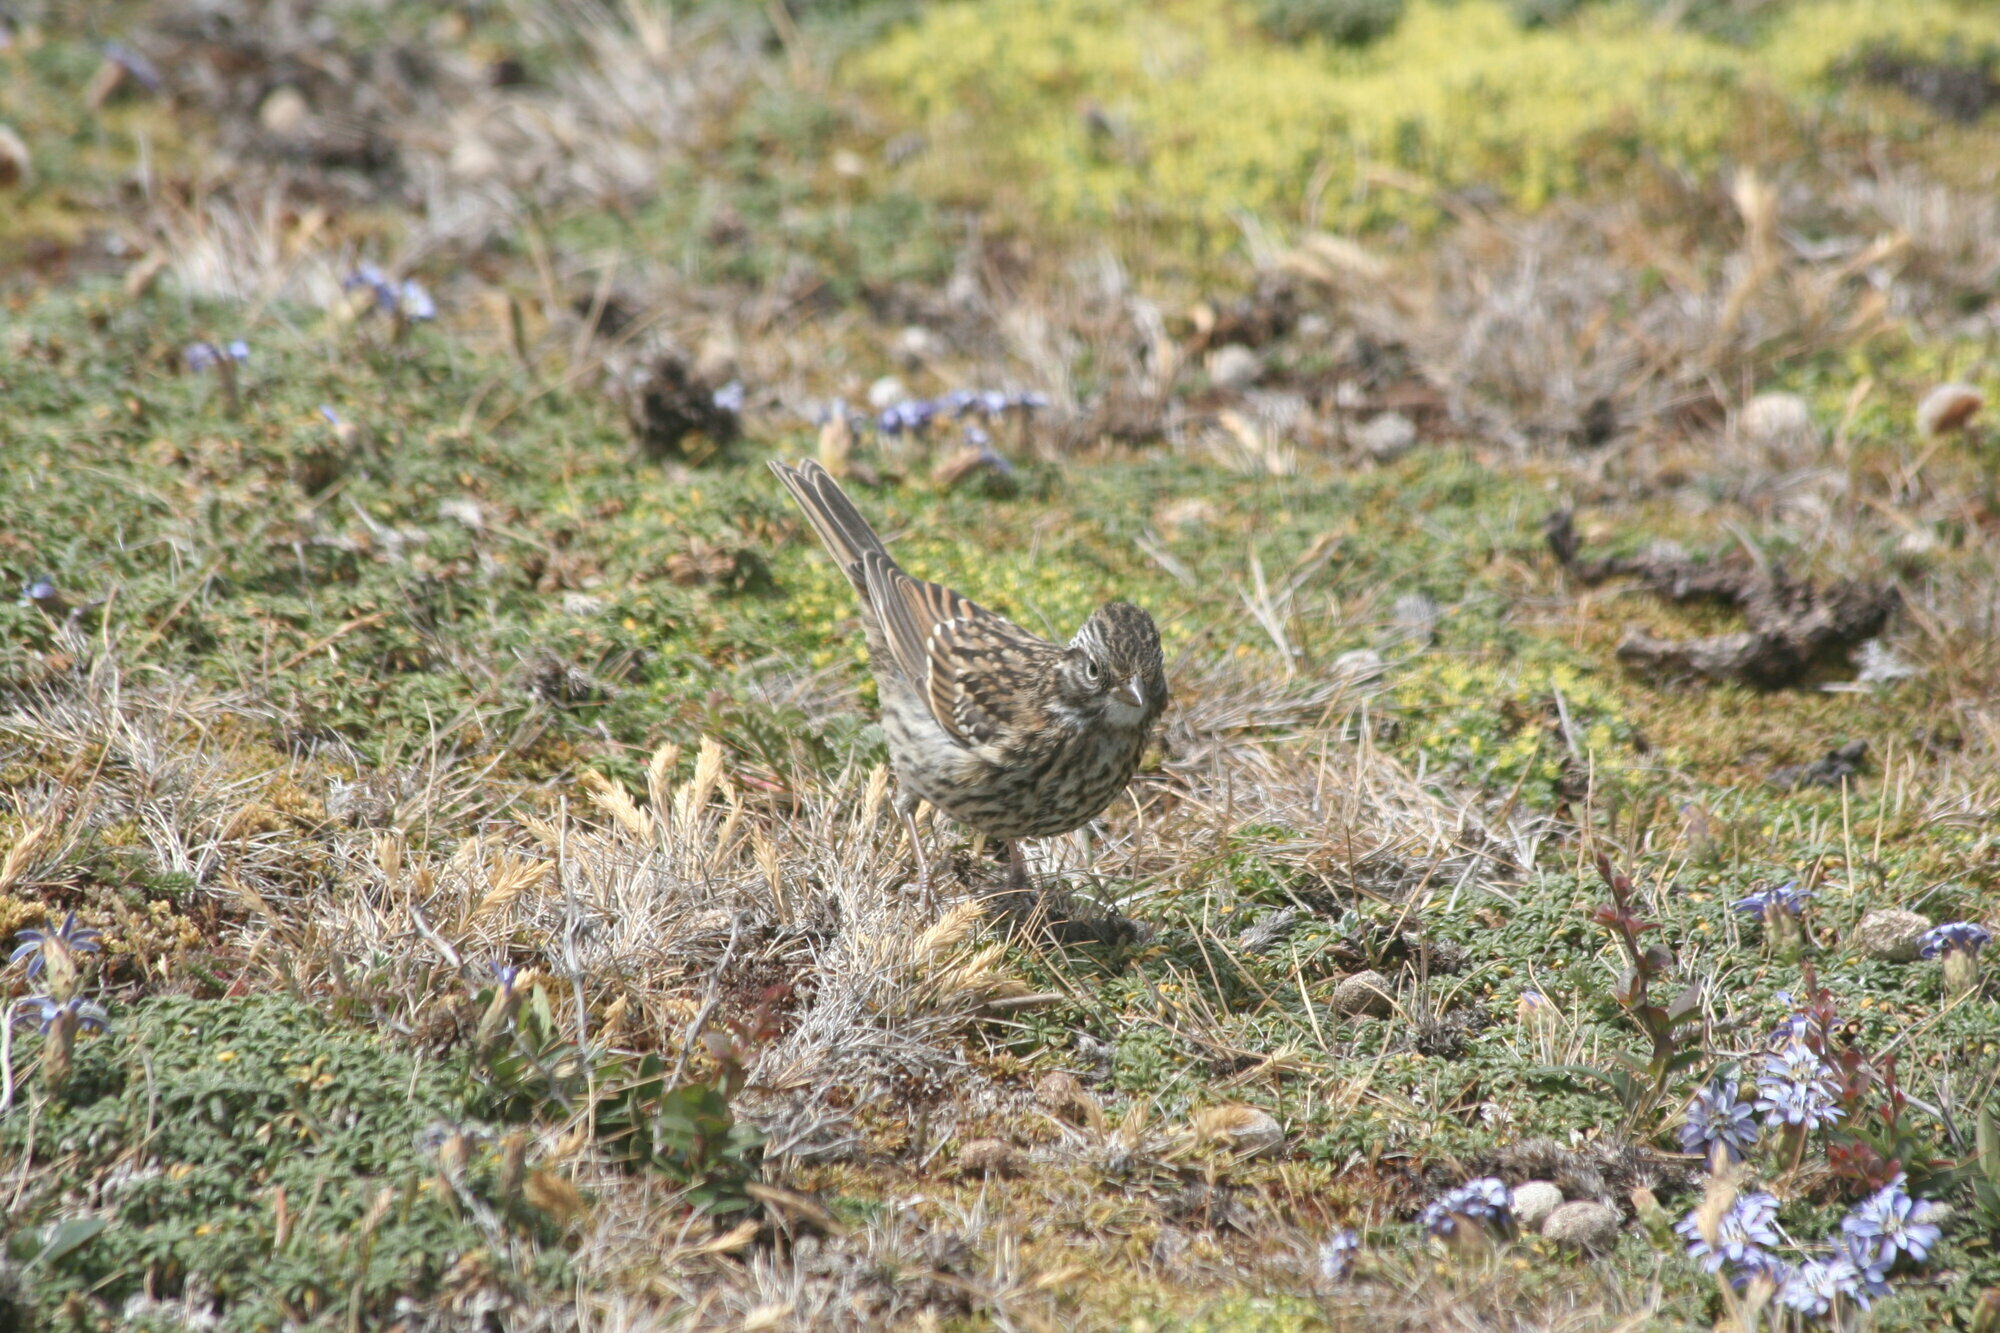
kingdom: Animalia
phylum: Chordata
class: Aves
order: Passeriformes
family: Passerellidae
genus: Zonotrichia
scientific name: Zonotrichia capensis
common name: Rufous-collared sparrow
